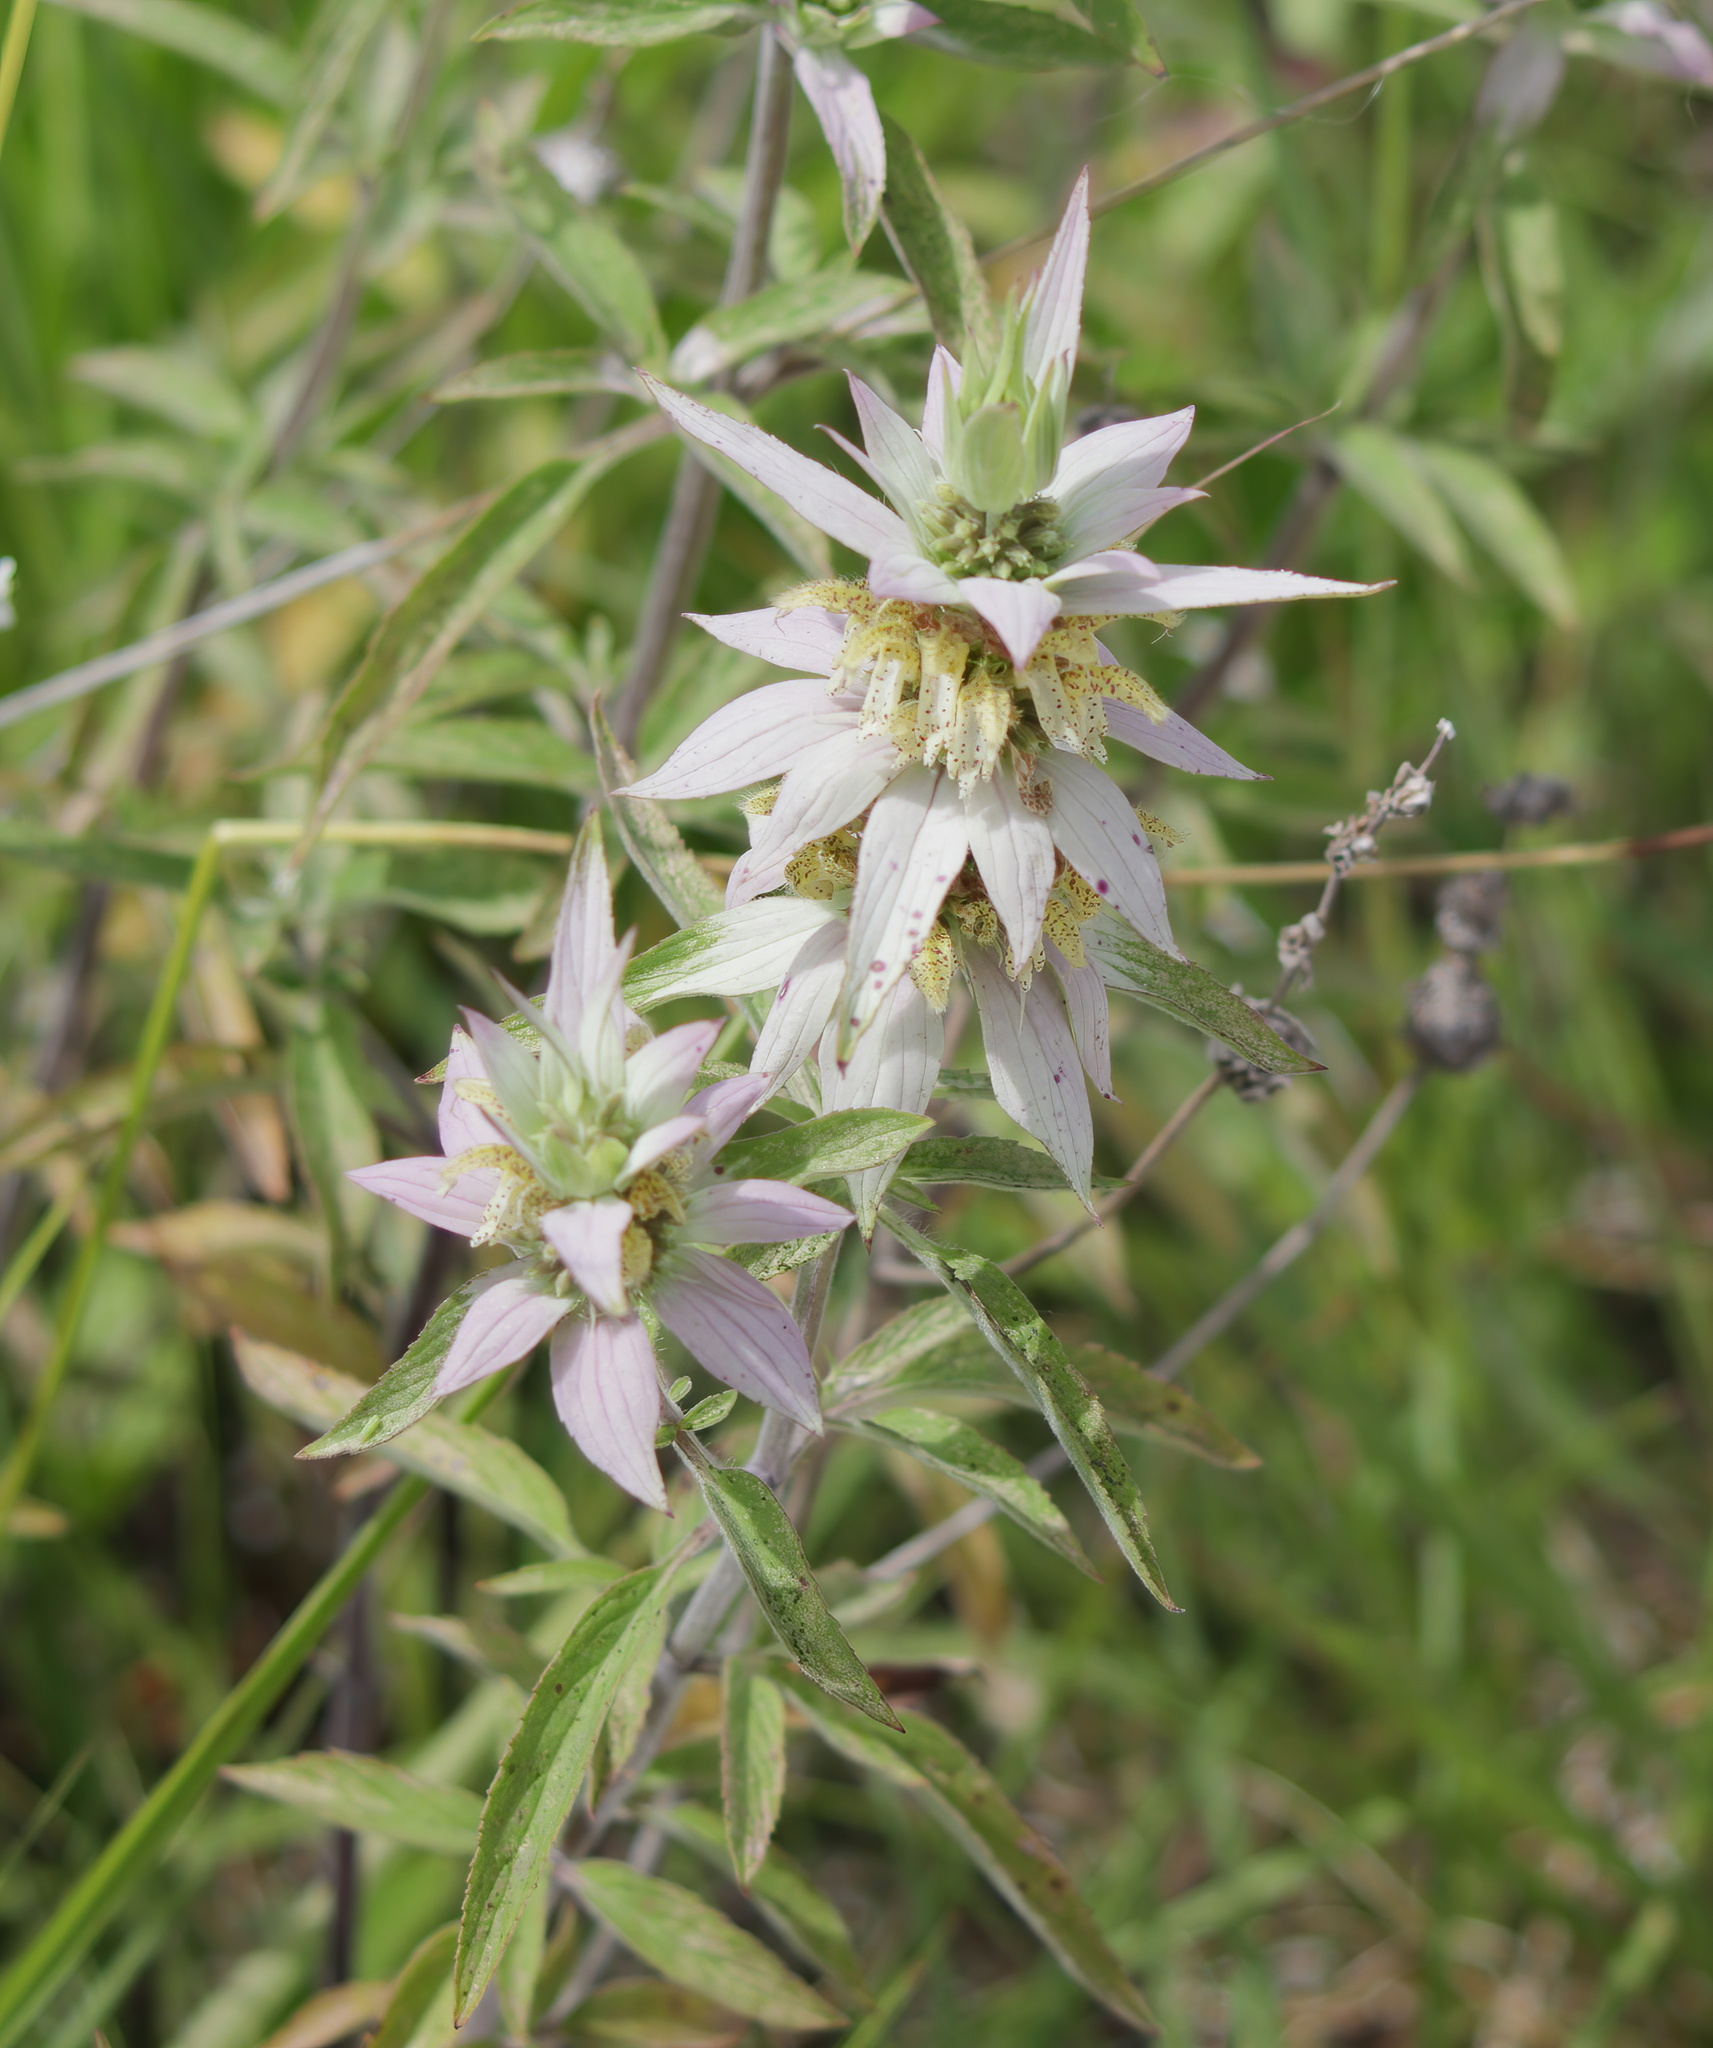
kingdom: Plantae
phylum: Tracheophyta
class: Magnoliopsida
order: Lamiales
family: Lamiaceae
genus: Monarda
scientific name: Monarda punctata
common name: Dotted monarda
